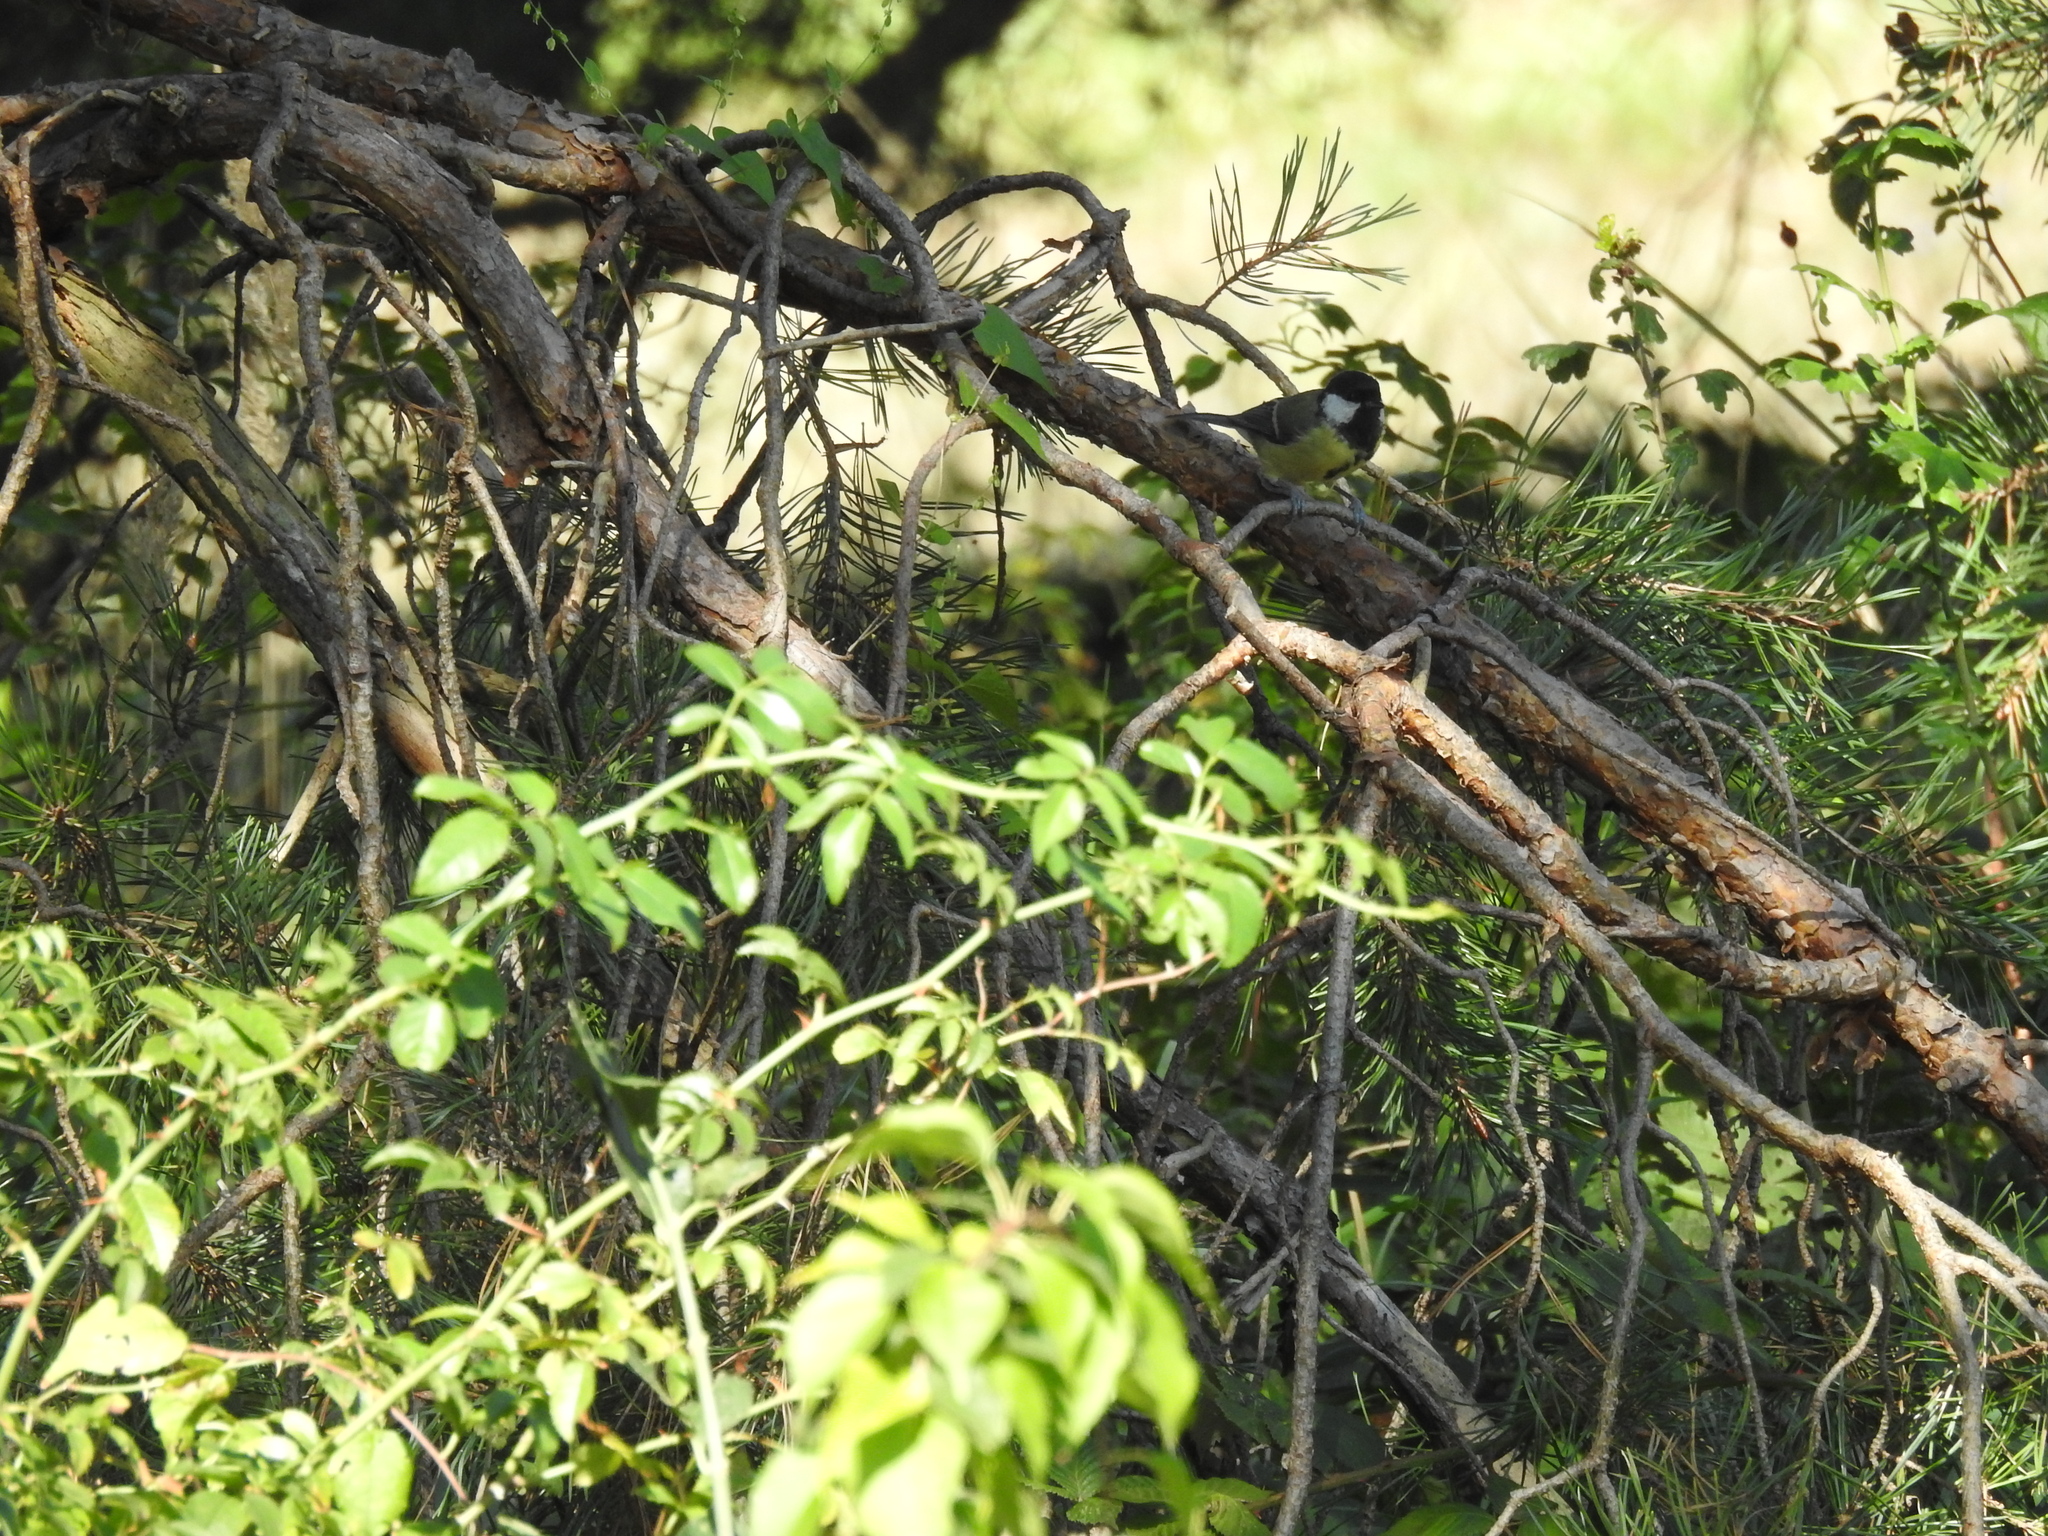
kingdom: Animalia
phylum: Chordata
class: Aves
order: Passeriformes
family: Paridae
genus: Parus
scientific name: Parus major
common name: Great tit
